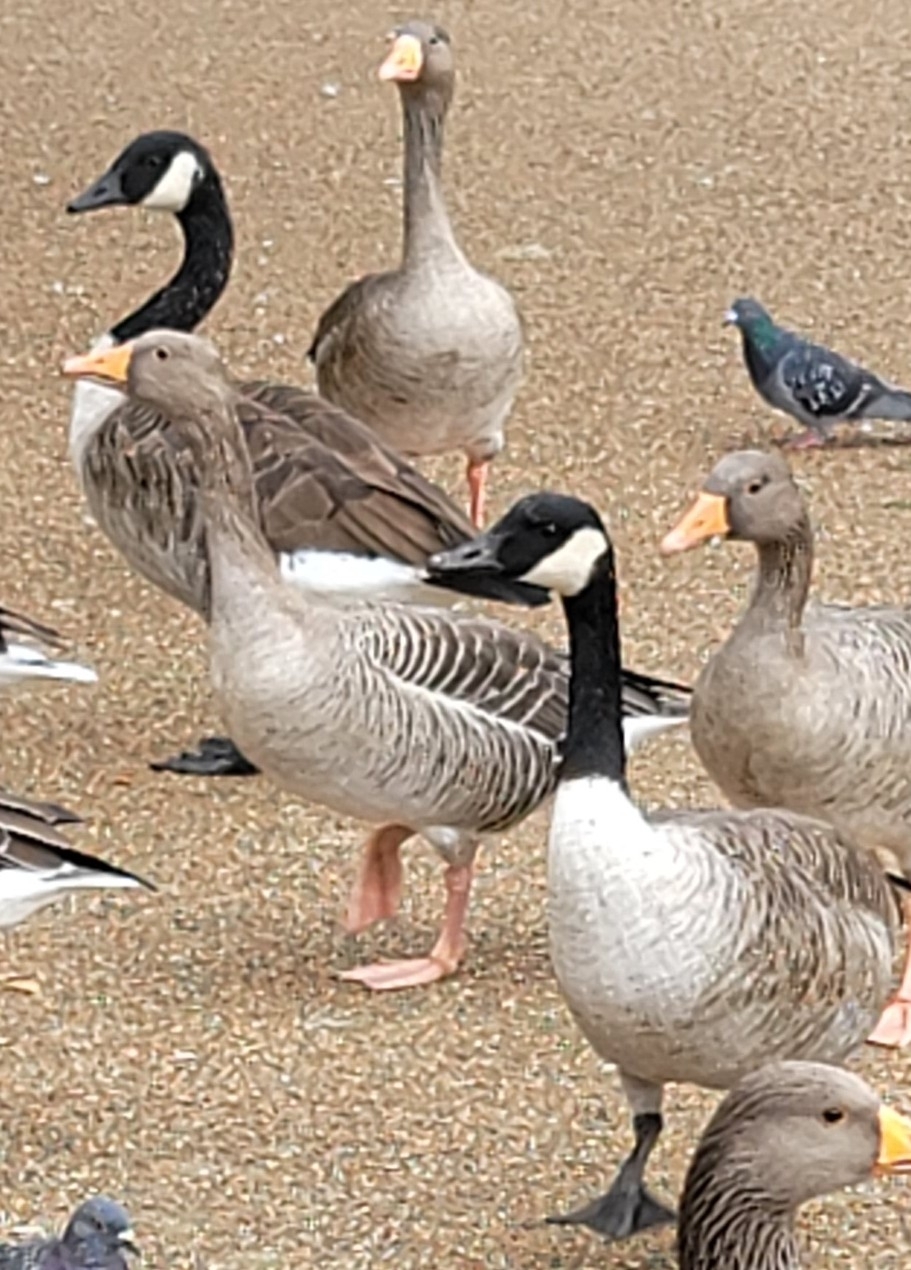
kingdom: Animalia
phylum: Chordata
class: Aves
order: Anseriformes
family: Anatidae
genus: Branta
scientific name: Branta canadensis
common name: Canada goose
